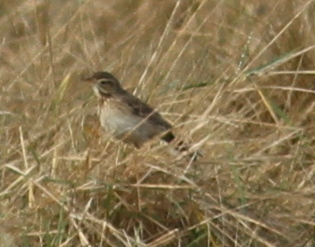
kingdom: Animalia
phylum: Chordata
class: Aves
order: Passeriformes
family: Motacillidae
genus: Anthus
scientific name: Anthus richardi
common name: Richard's pipit
